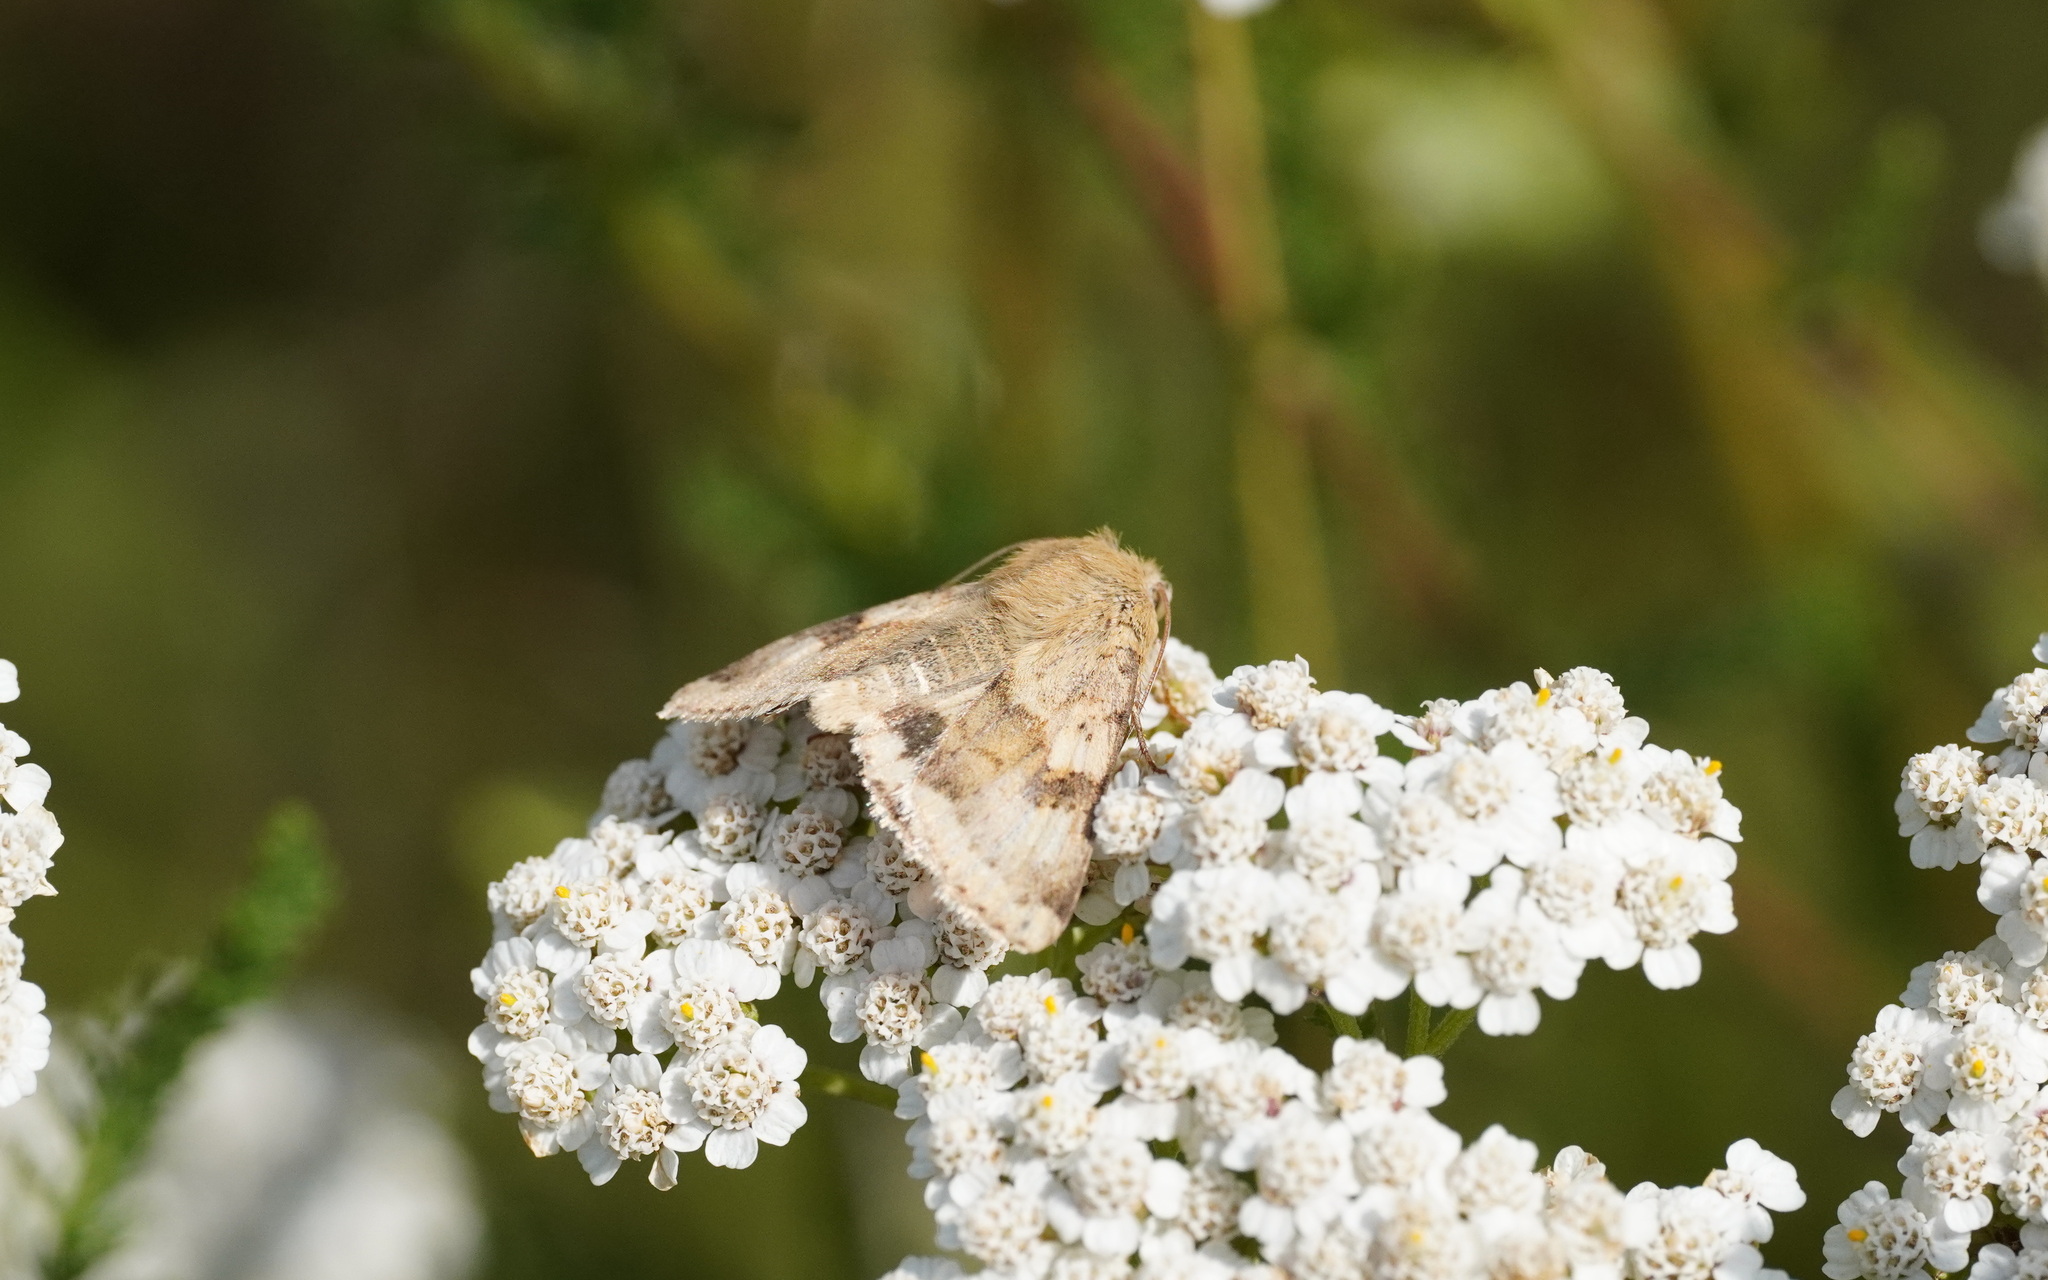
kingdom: Animalia
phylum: Arthropoda
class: Insecta
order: Lepidoptera
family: Noctuidae
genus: Heliothis
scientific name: Heliothis viriplaca
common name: Marbled clover
